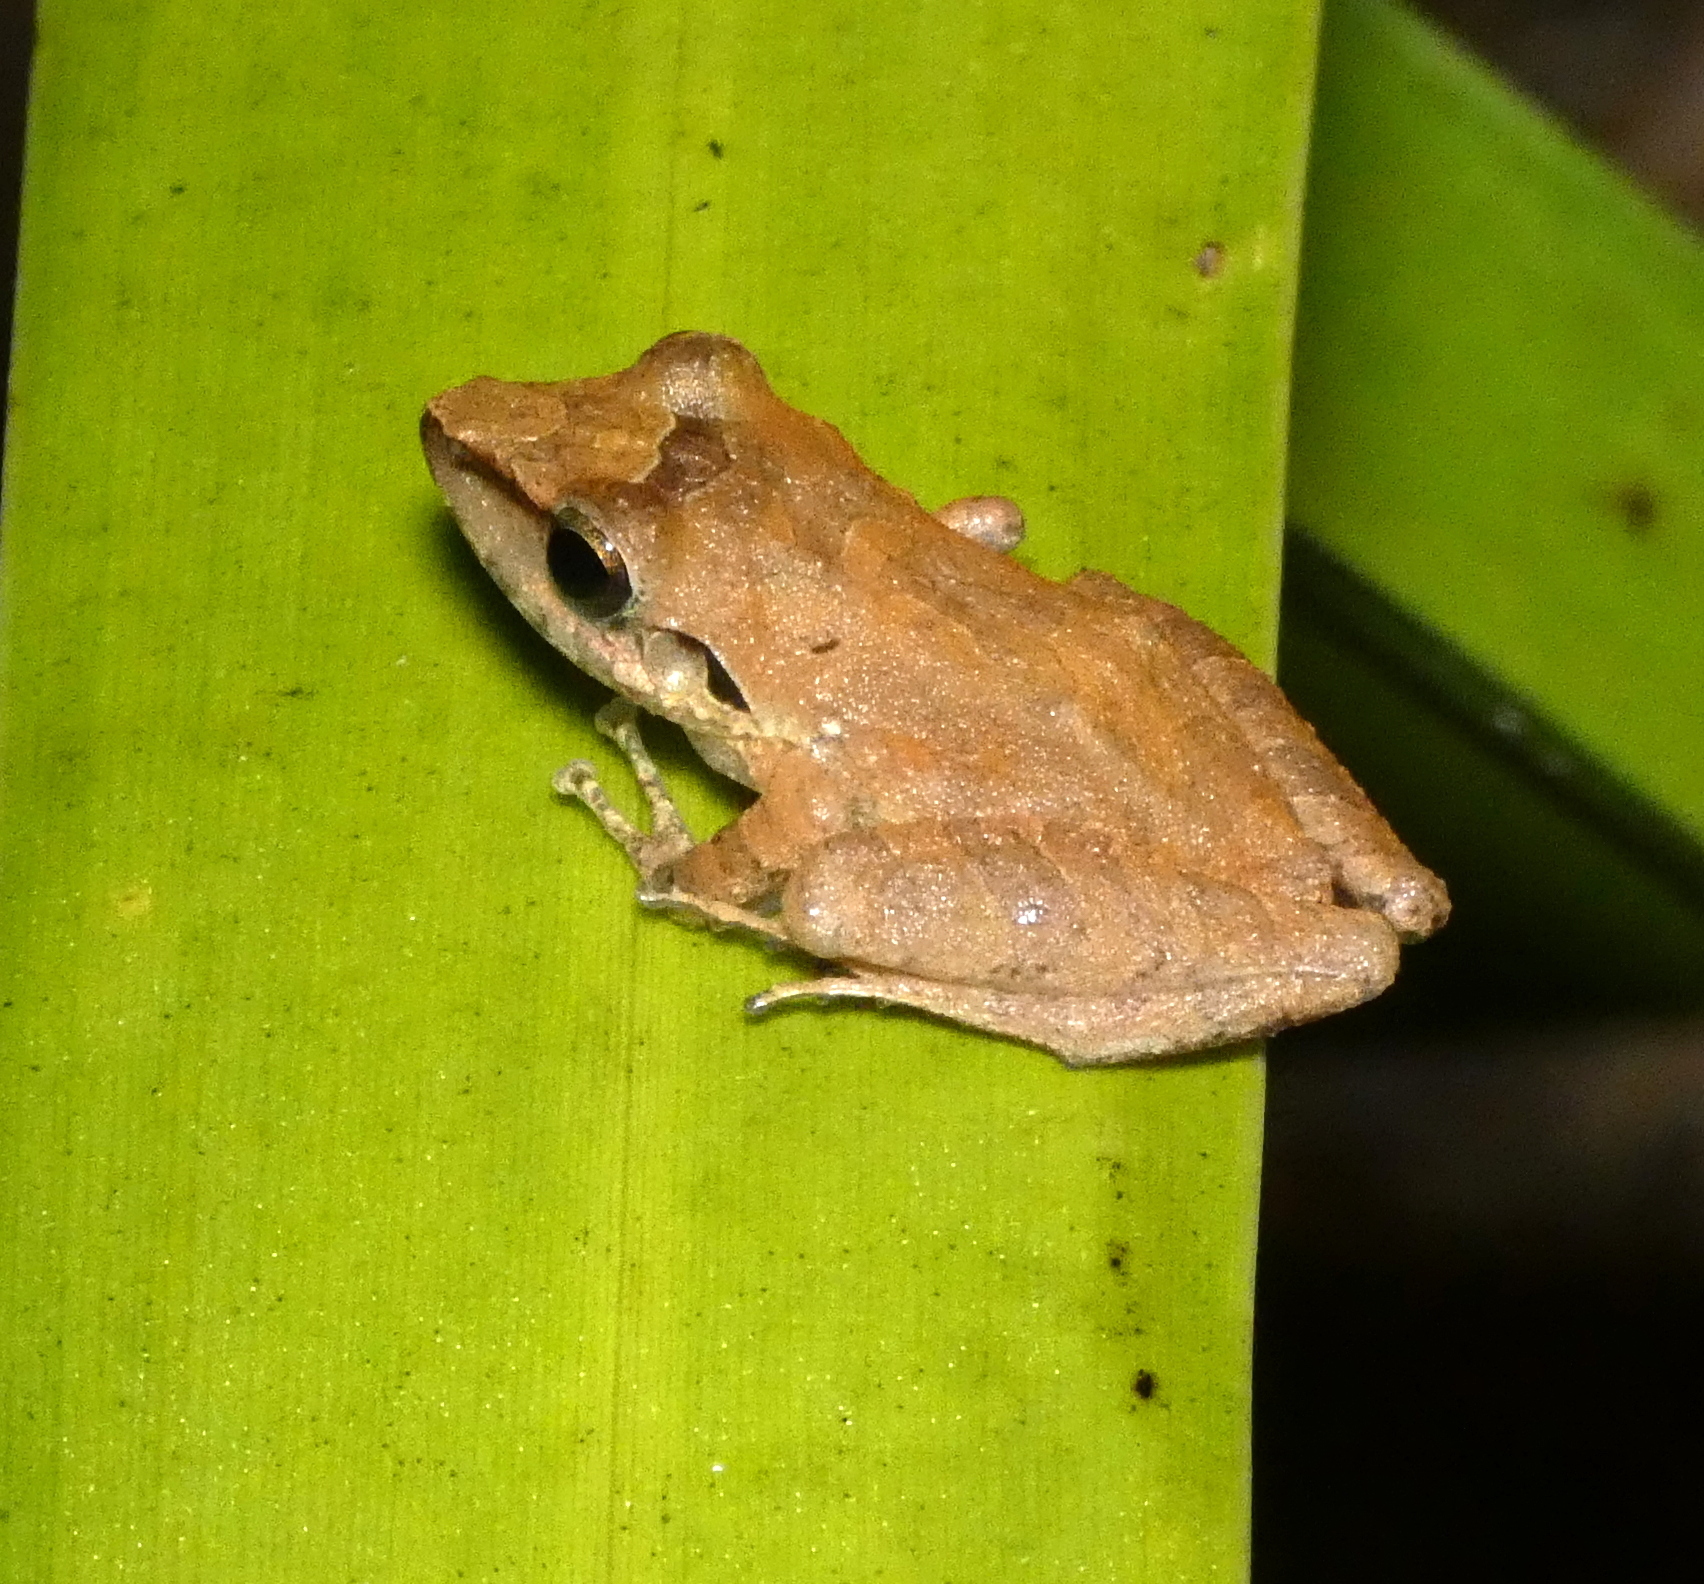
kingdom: Animalia
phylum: Chordata
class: Amphibia
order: Anura
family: Craugastoridae
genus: Pristimantis
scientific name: Pristimantis ramagii
